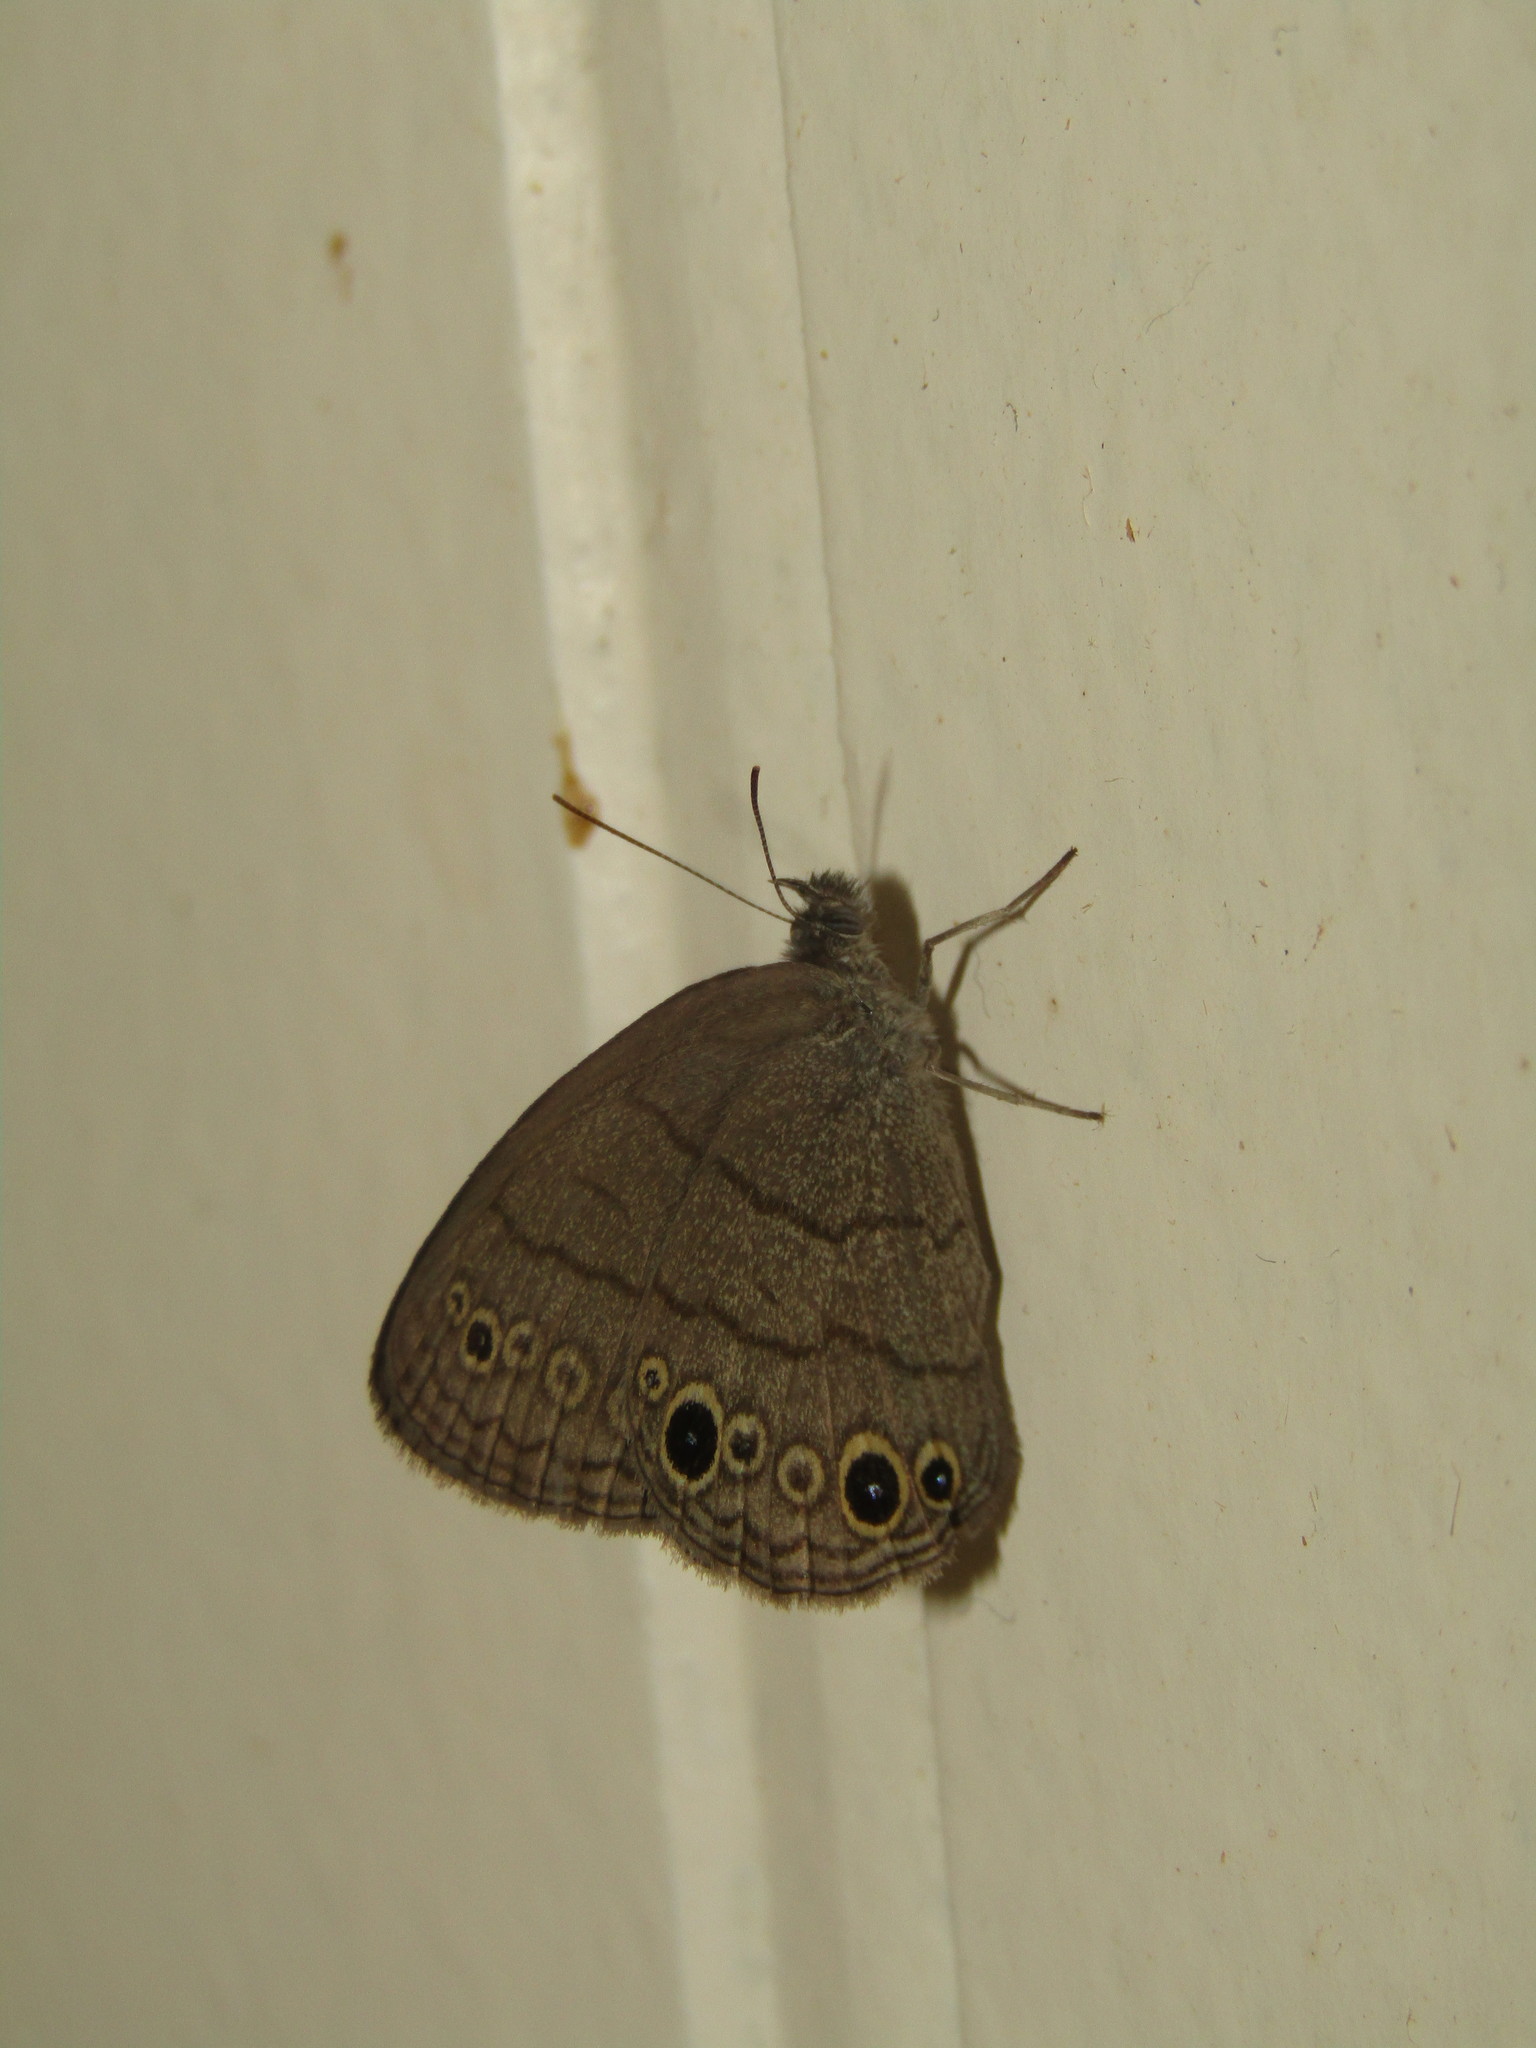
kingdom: Animalia
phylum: Arthropoda
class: Insecta
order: Lepidoptera
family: Nymphalidae
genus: Hermeuptychia
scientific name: Hermeuptychia hermes
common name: Hermes satyr
